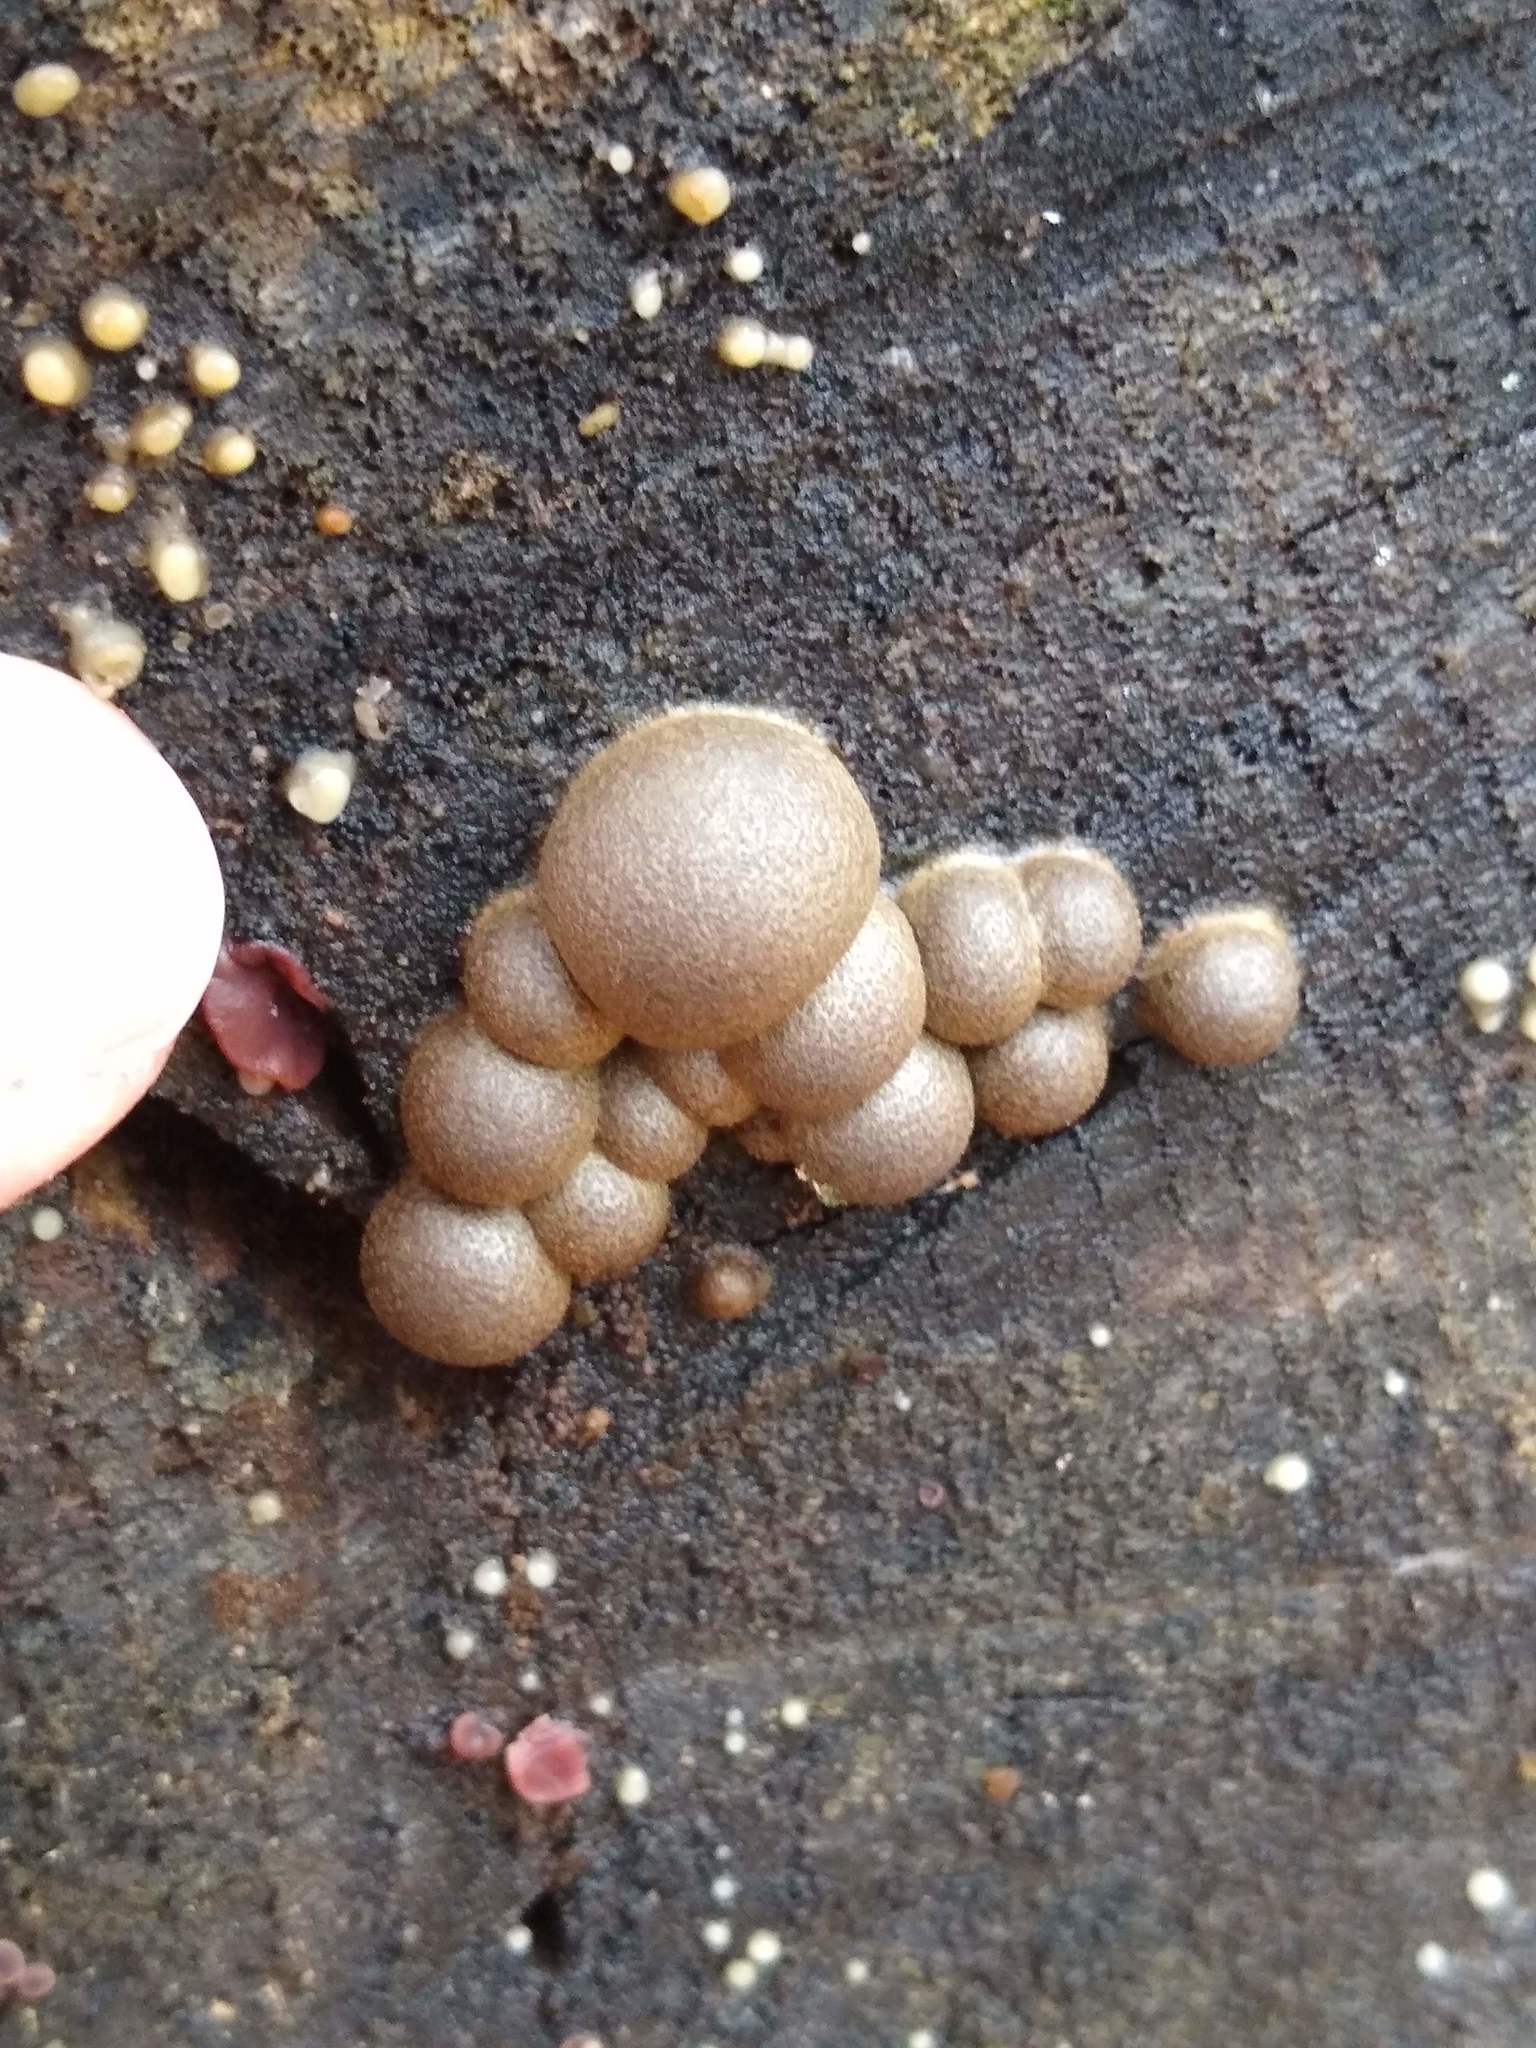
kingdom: Protozoa
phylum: Mycetozoa
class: Myxomycetes
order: Cribrariales
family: Tubiferaceae
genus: Lycogala
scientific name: Lycogala epidendrum
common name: Wolf's milk
